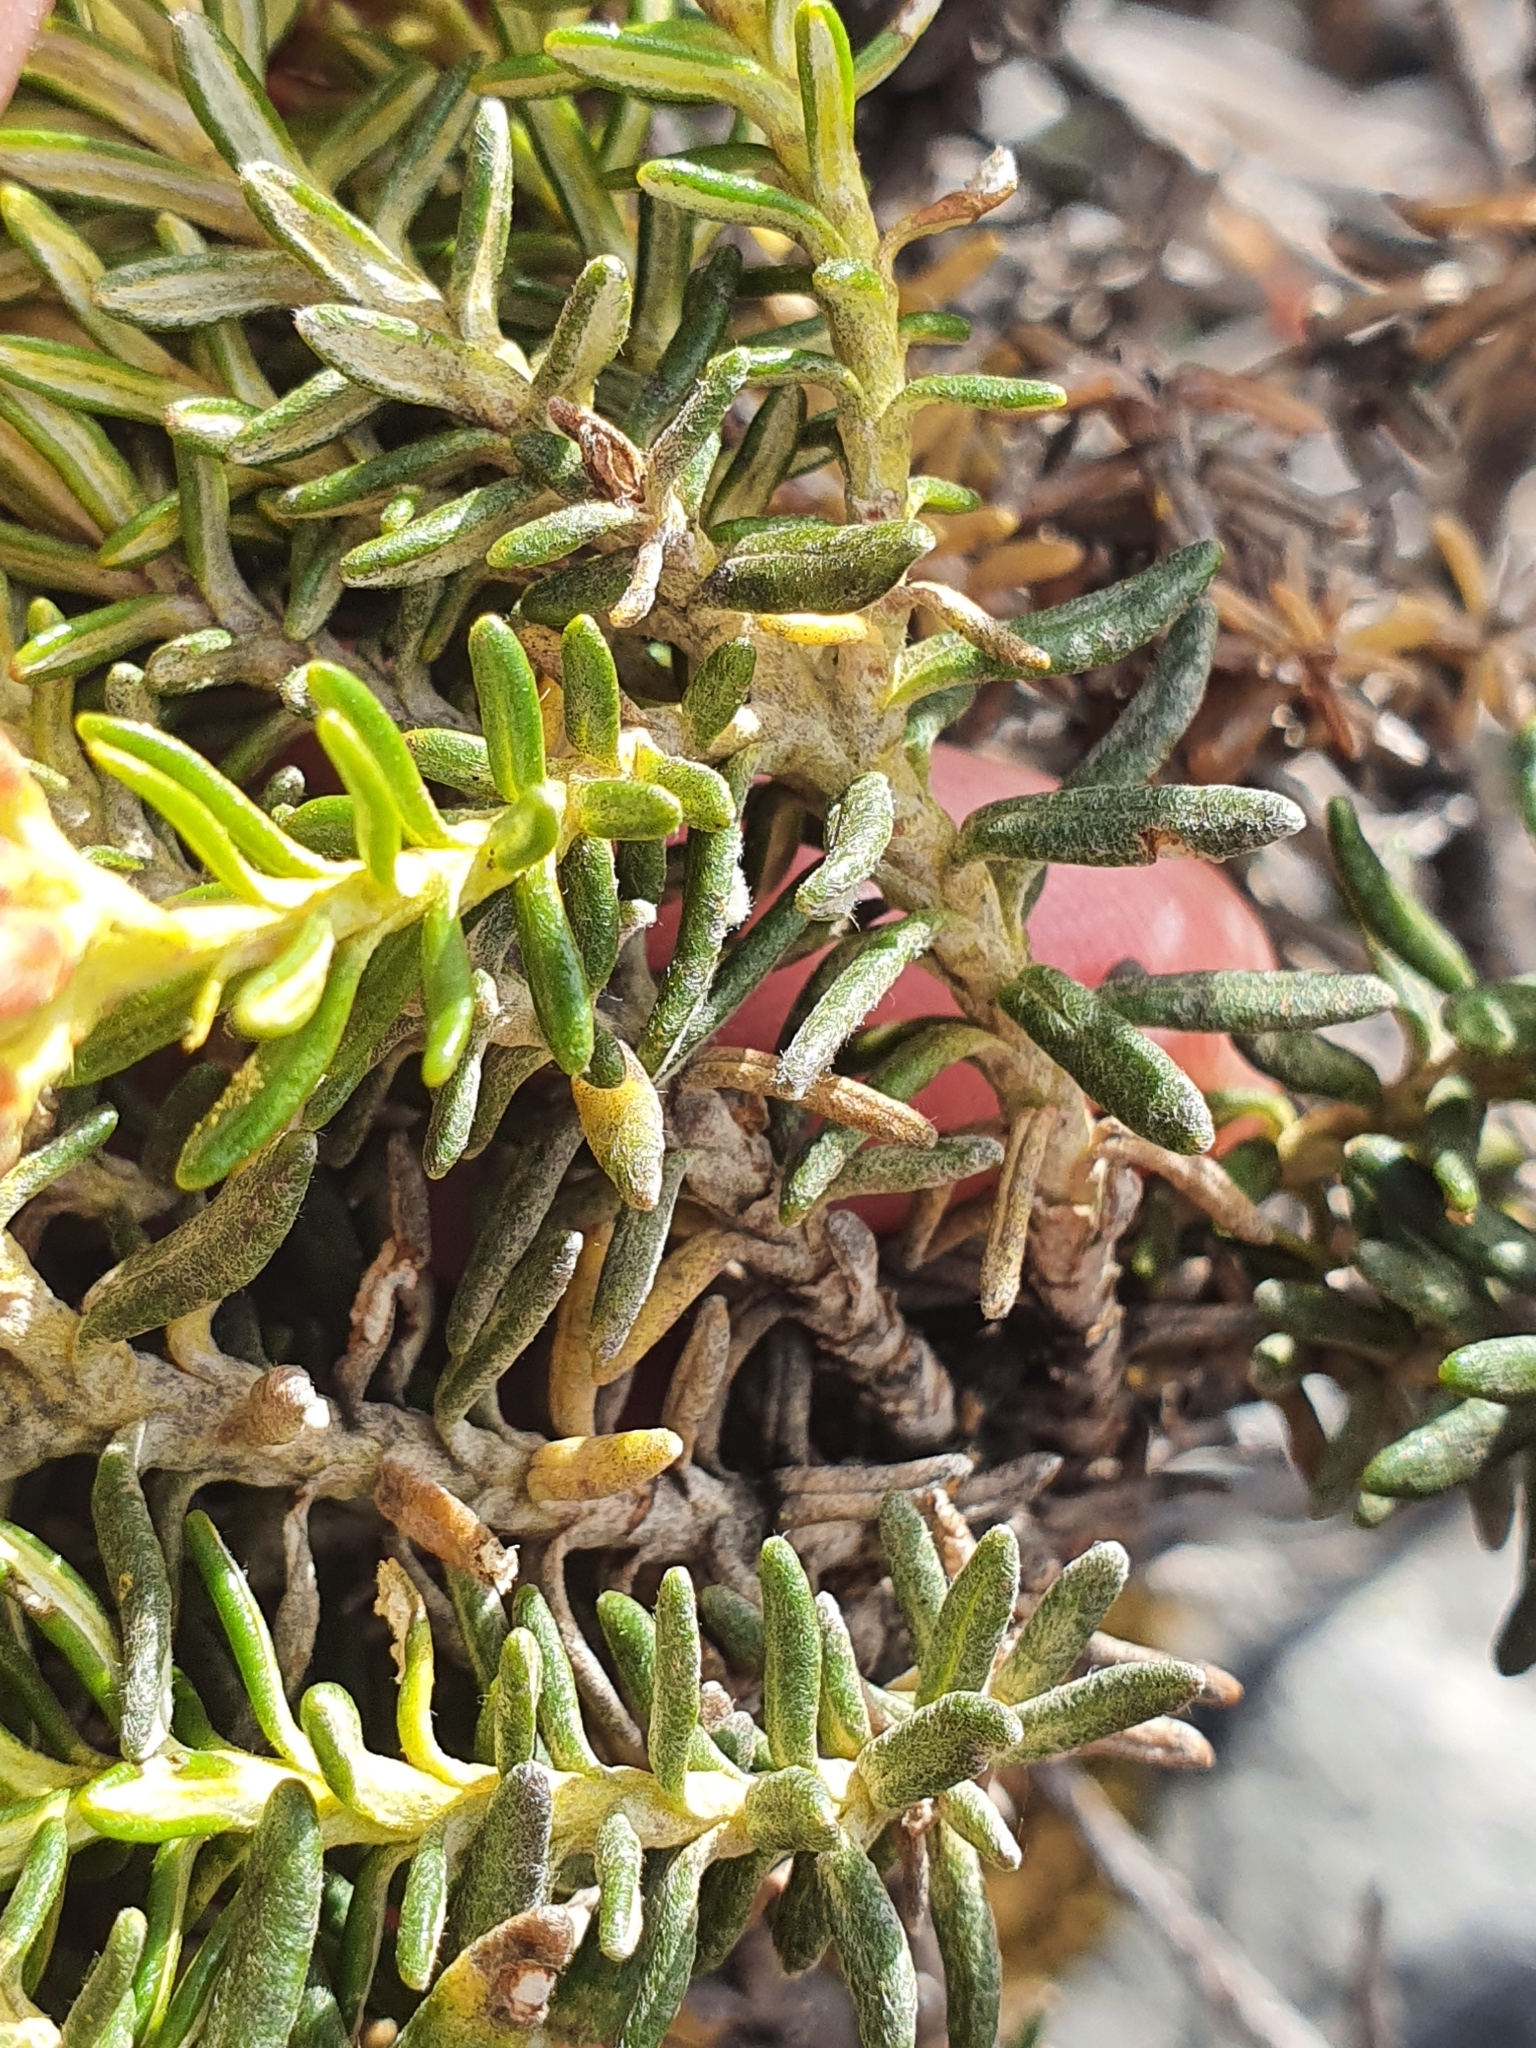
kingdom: Plantae
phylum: Tracheophyta
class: Magnoliopsida
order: Asterales
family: Asteraceae
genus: Ozothamnus
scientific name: Ozothamnus ledifolius
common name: Kerosene-weed
